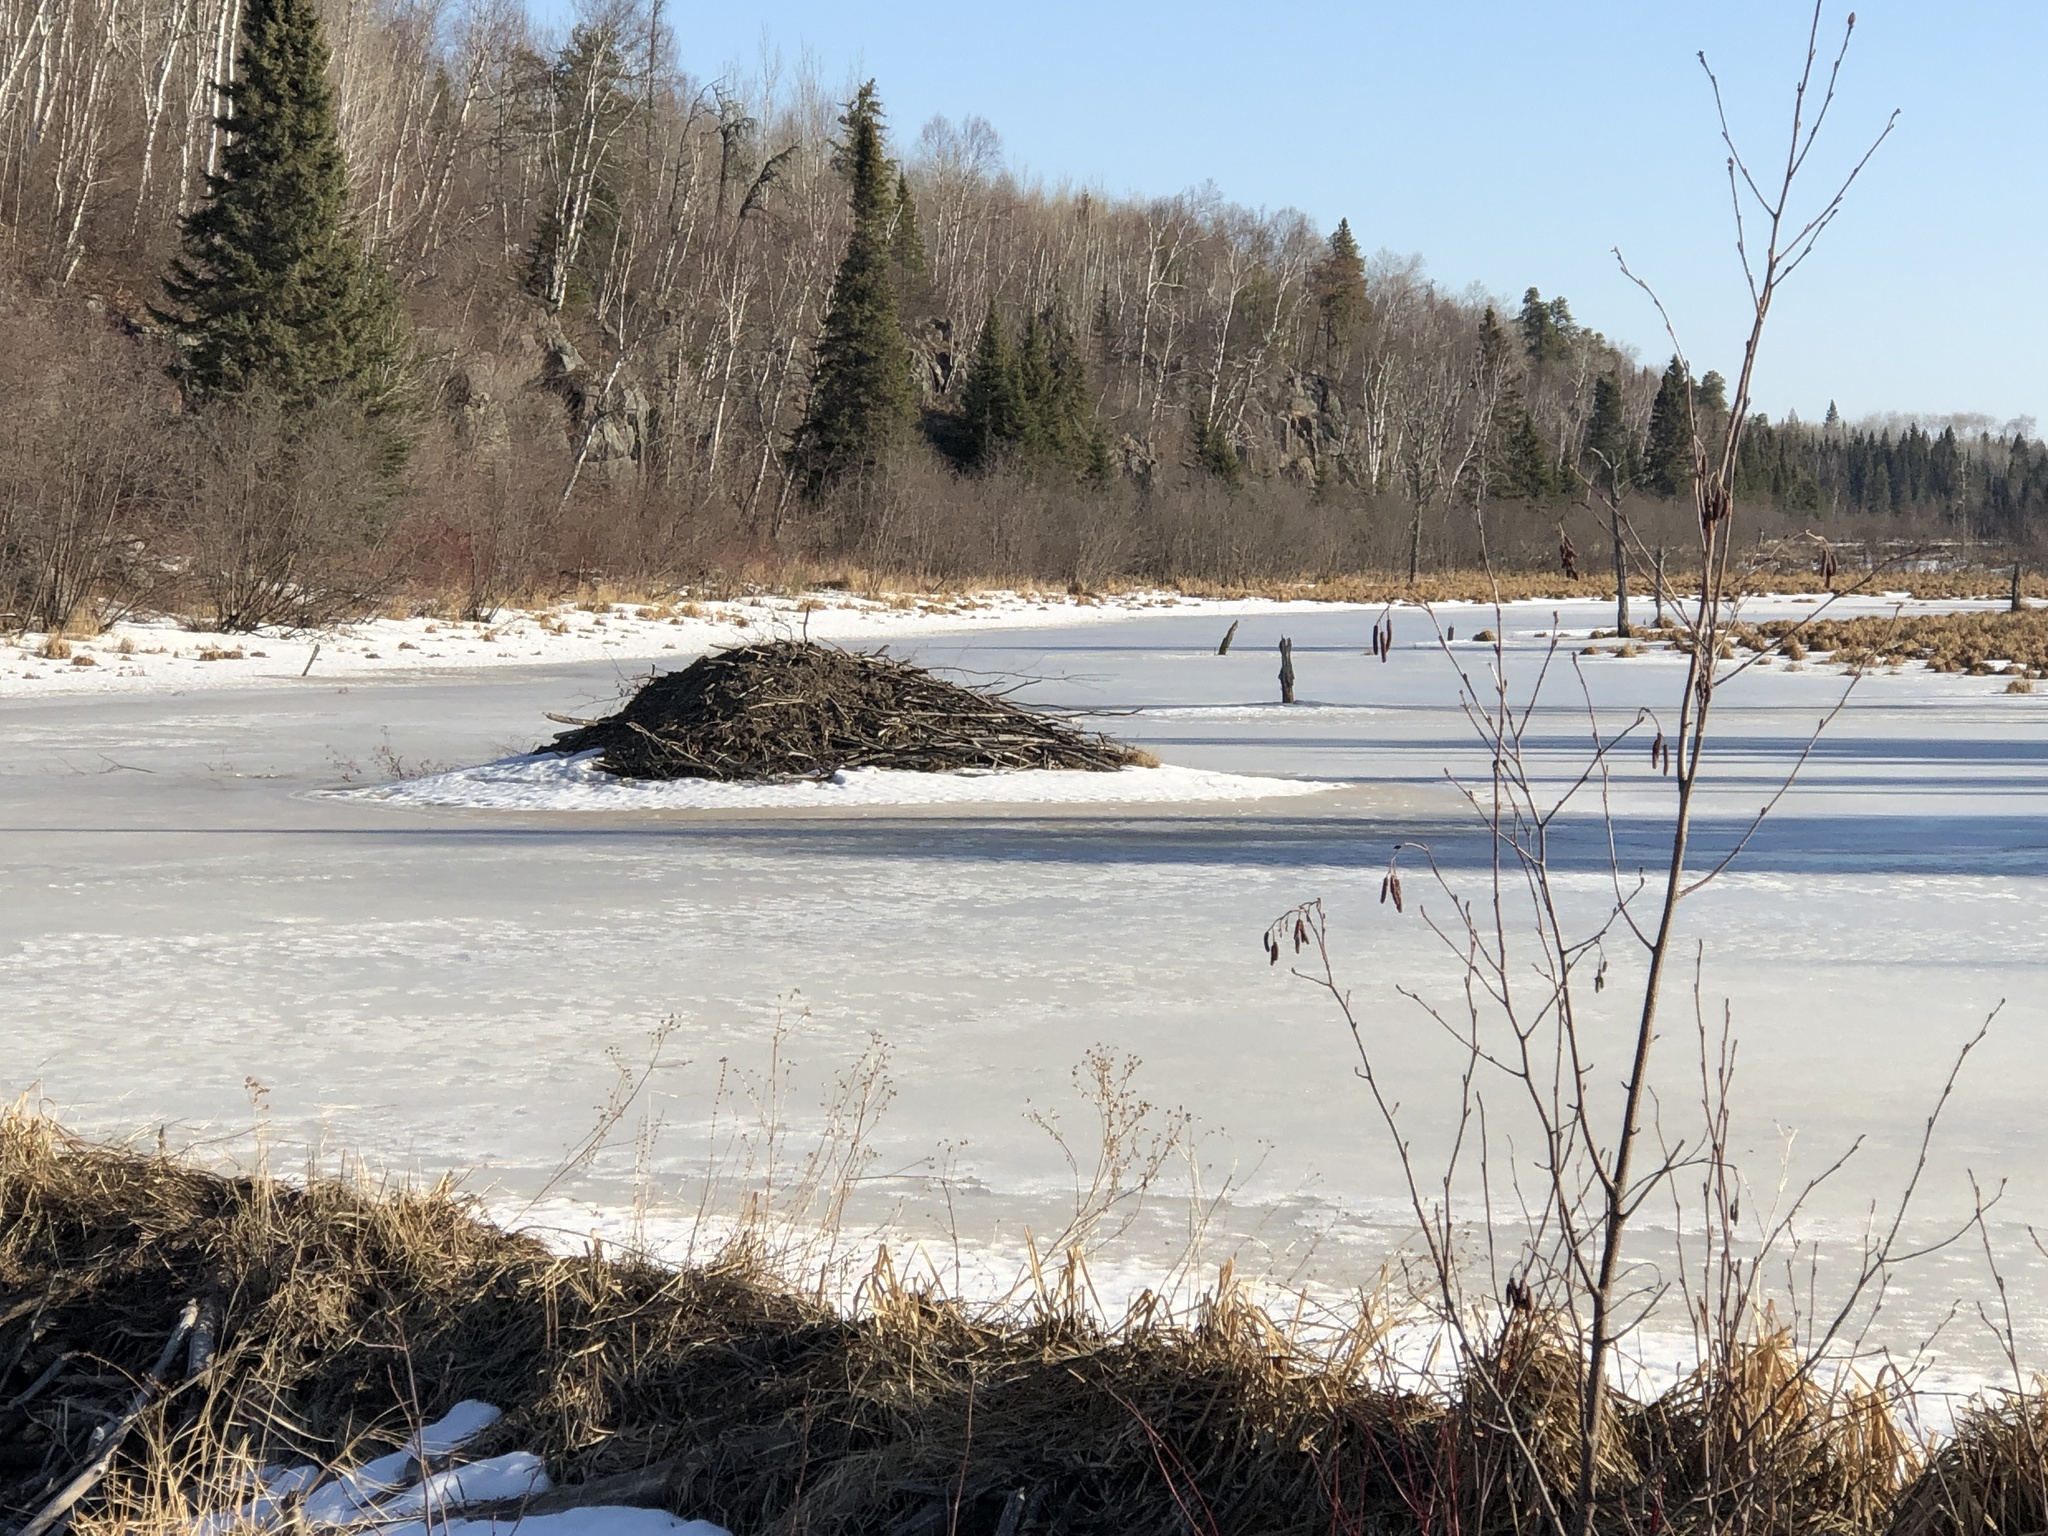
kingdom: Animalia
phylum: Chordata
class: Mammalia
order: Rodentia
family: Castoridae
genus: Castor
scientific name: Castor canadensis
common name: American beaver
